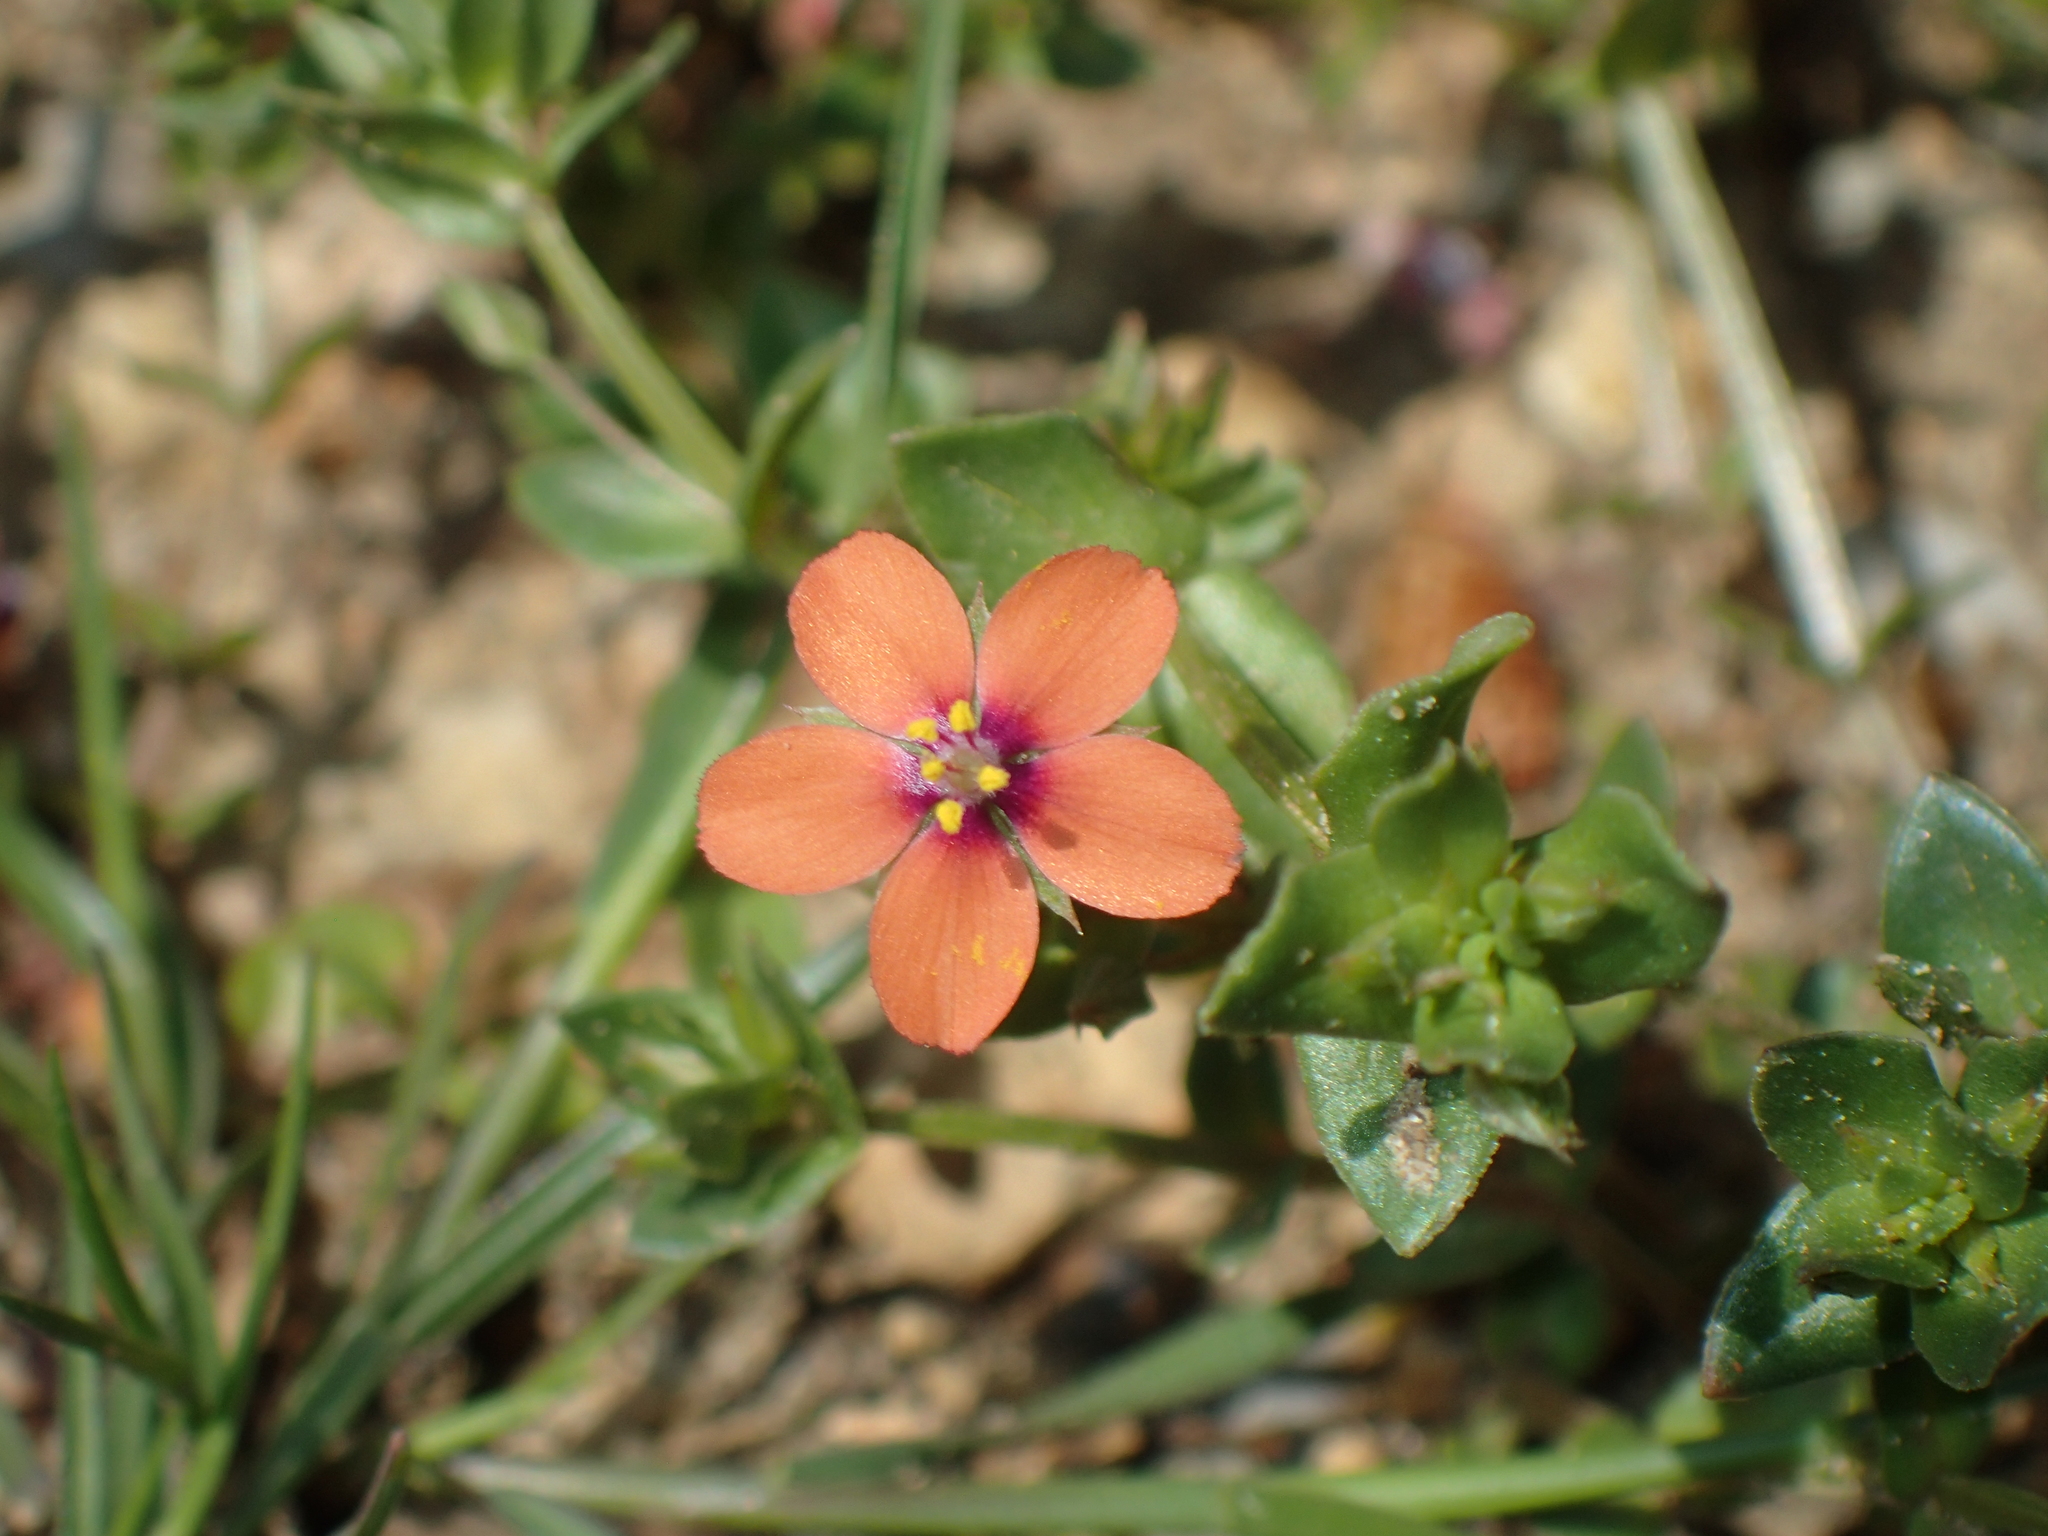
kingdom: Plantae
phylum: Tracheophyta
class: Magnoliopsida
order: Ericales
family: Primulaceae
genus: Lysimachia
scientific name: Lysimachia arvensis
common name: Scarlet pimpernel
